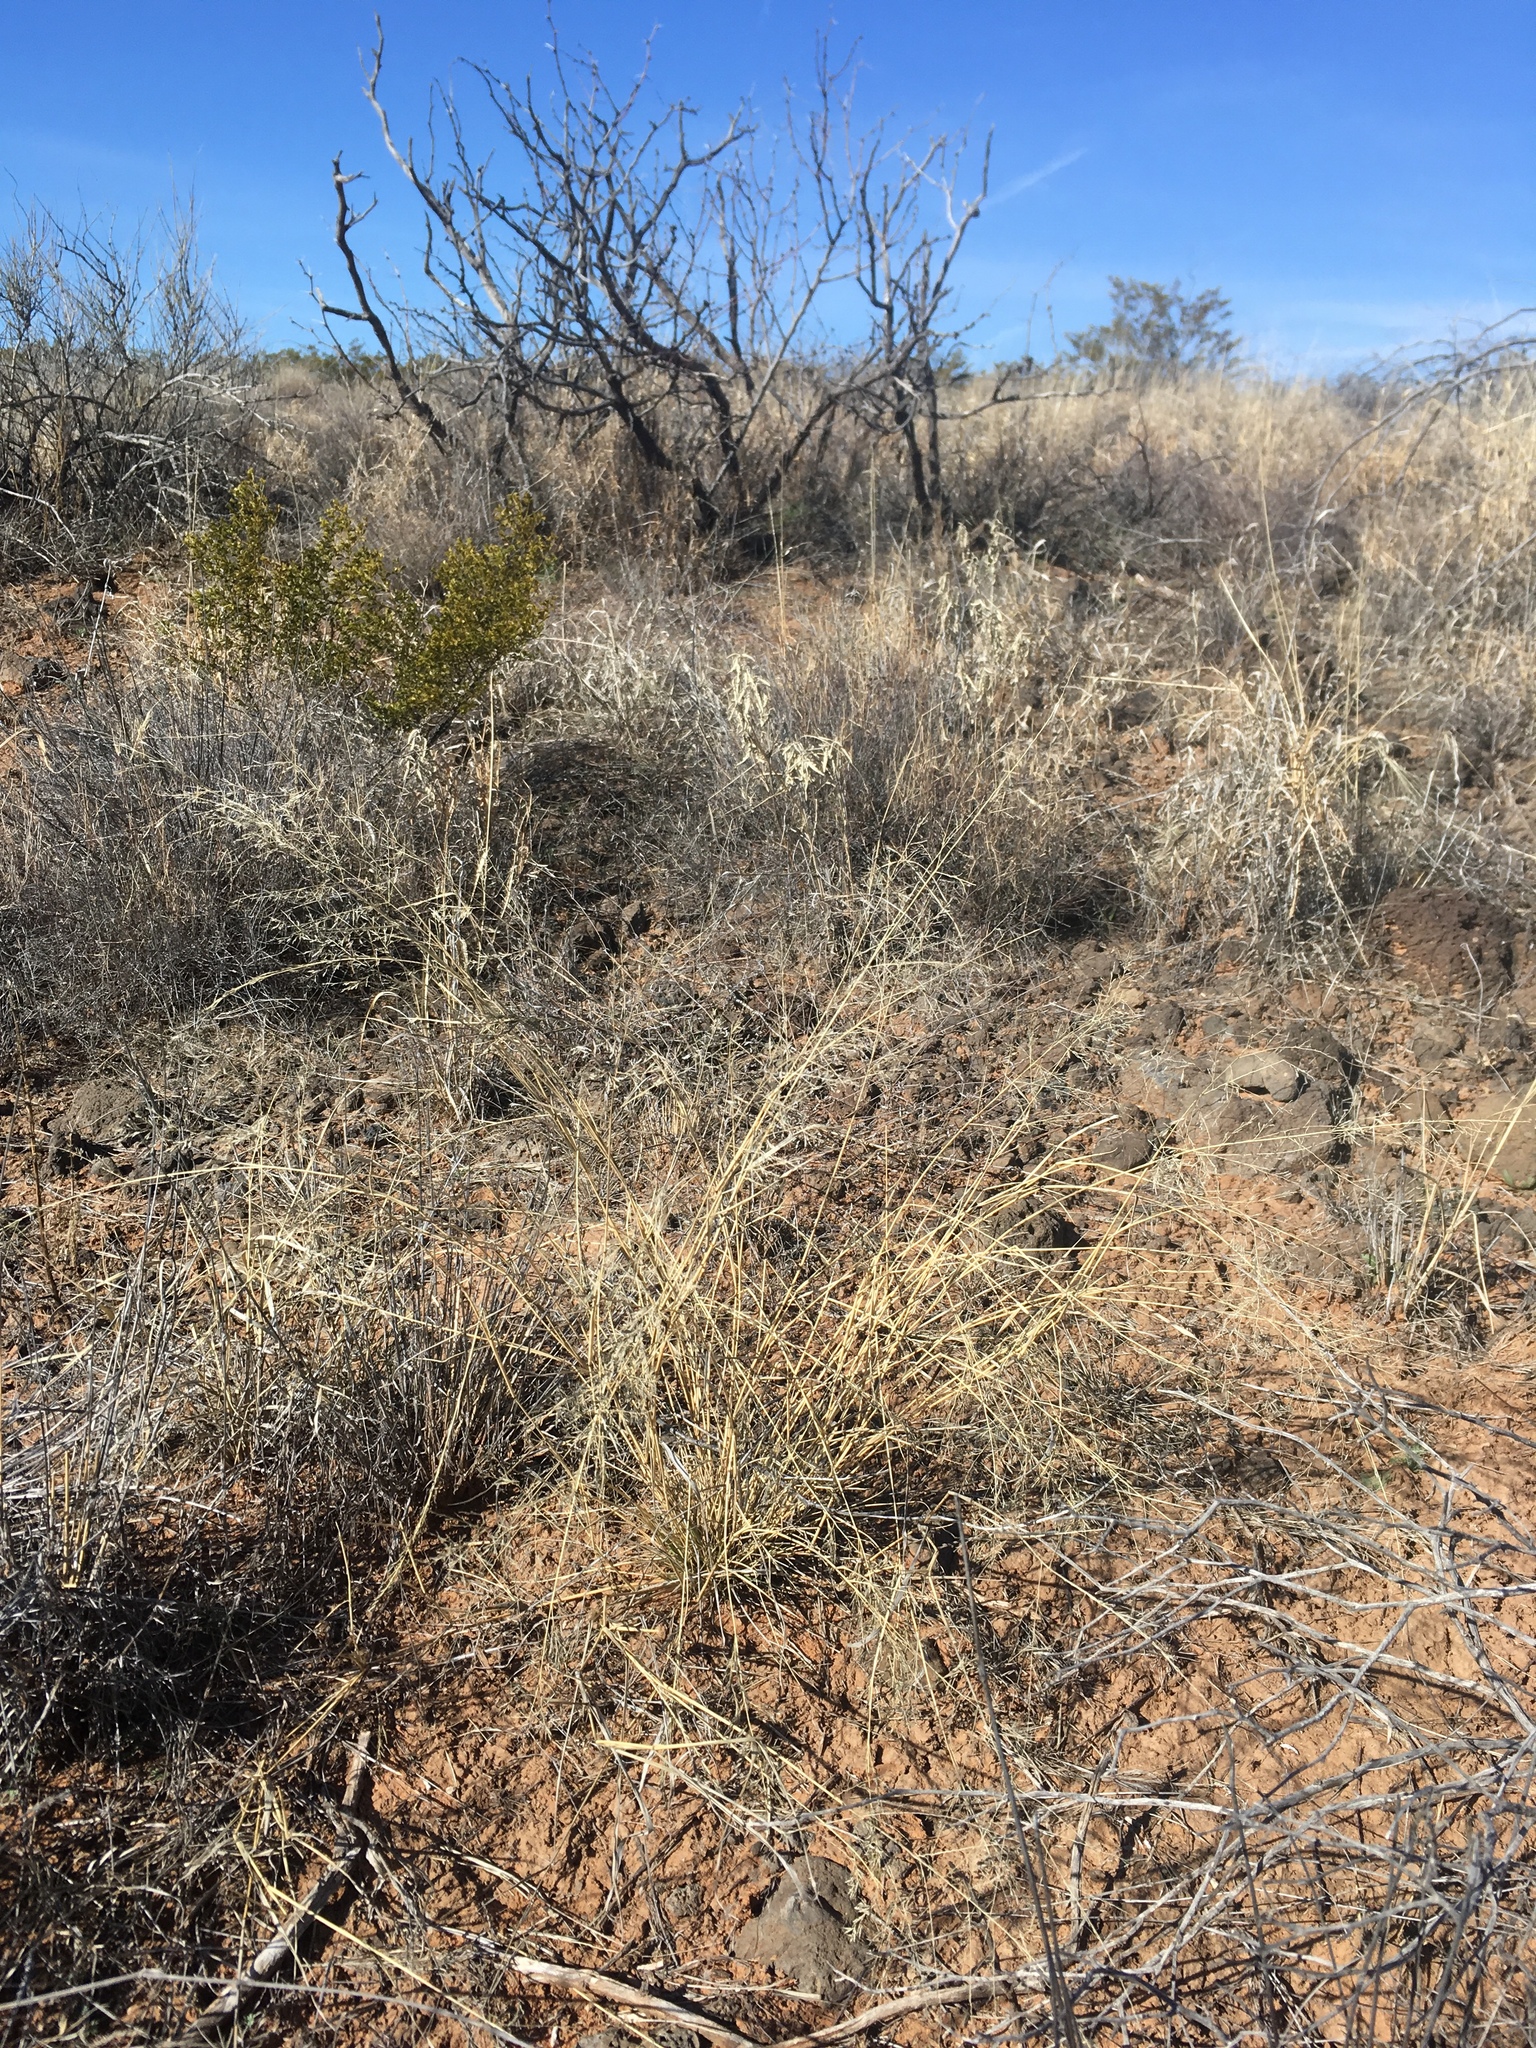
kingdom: Plantae
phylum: Tracheophyta
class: Liliopsida
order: Poales
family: Poaceae
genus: Eragrostis
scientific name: Eragrostis lehmanniana
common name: Lehmann lovegrass
